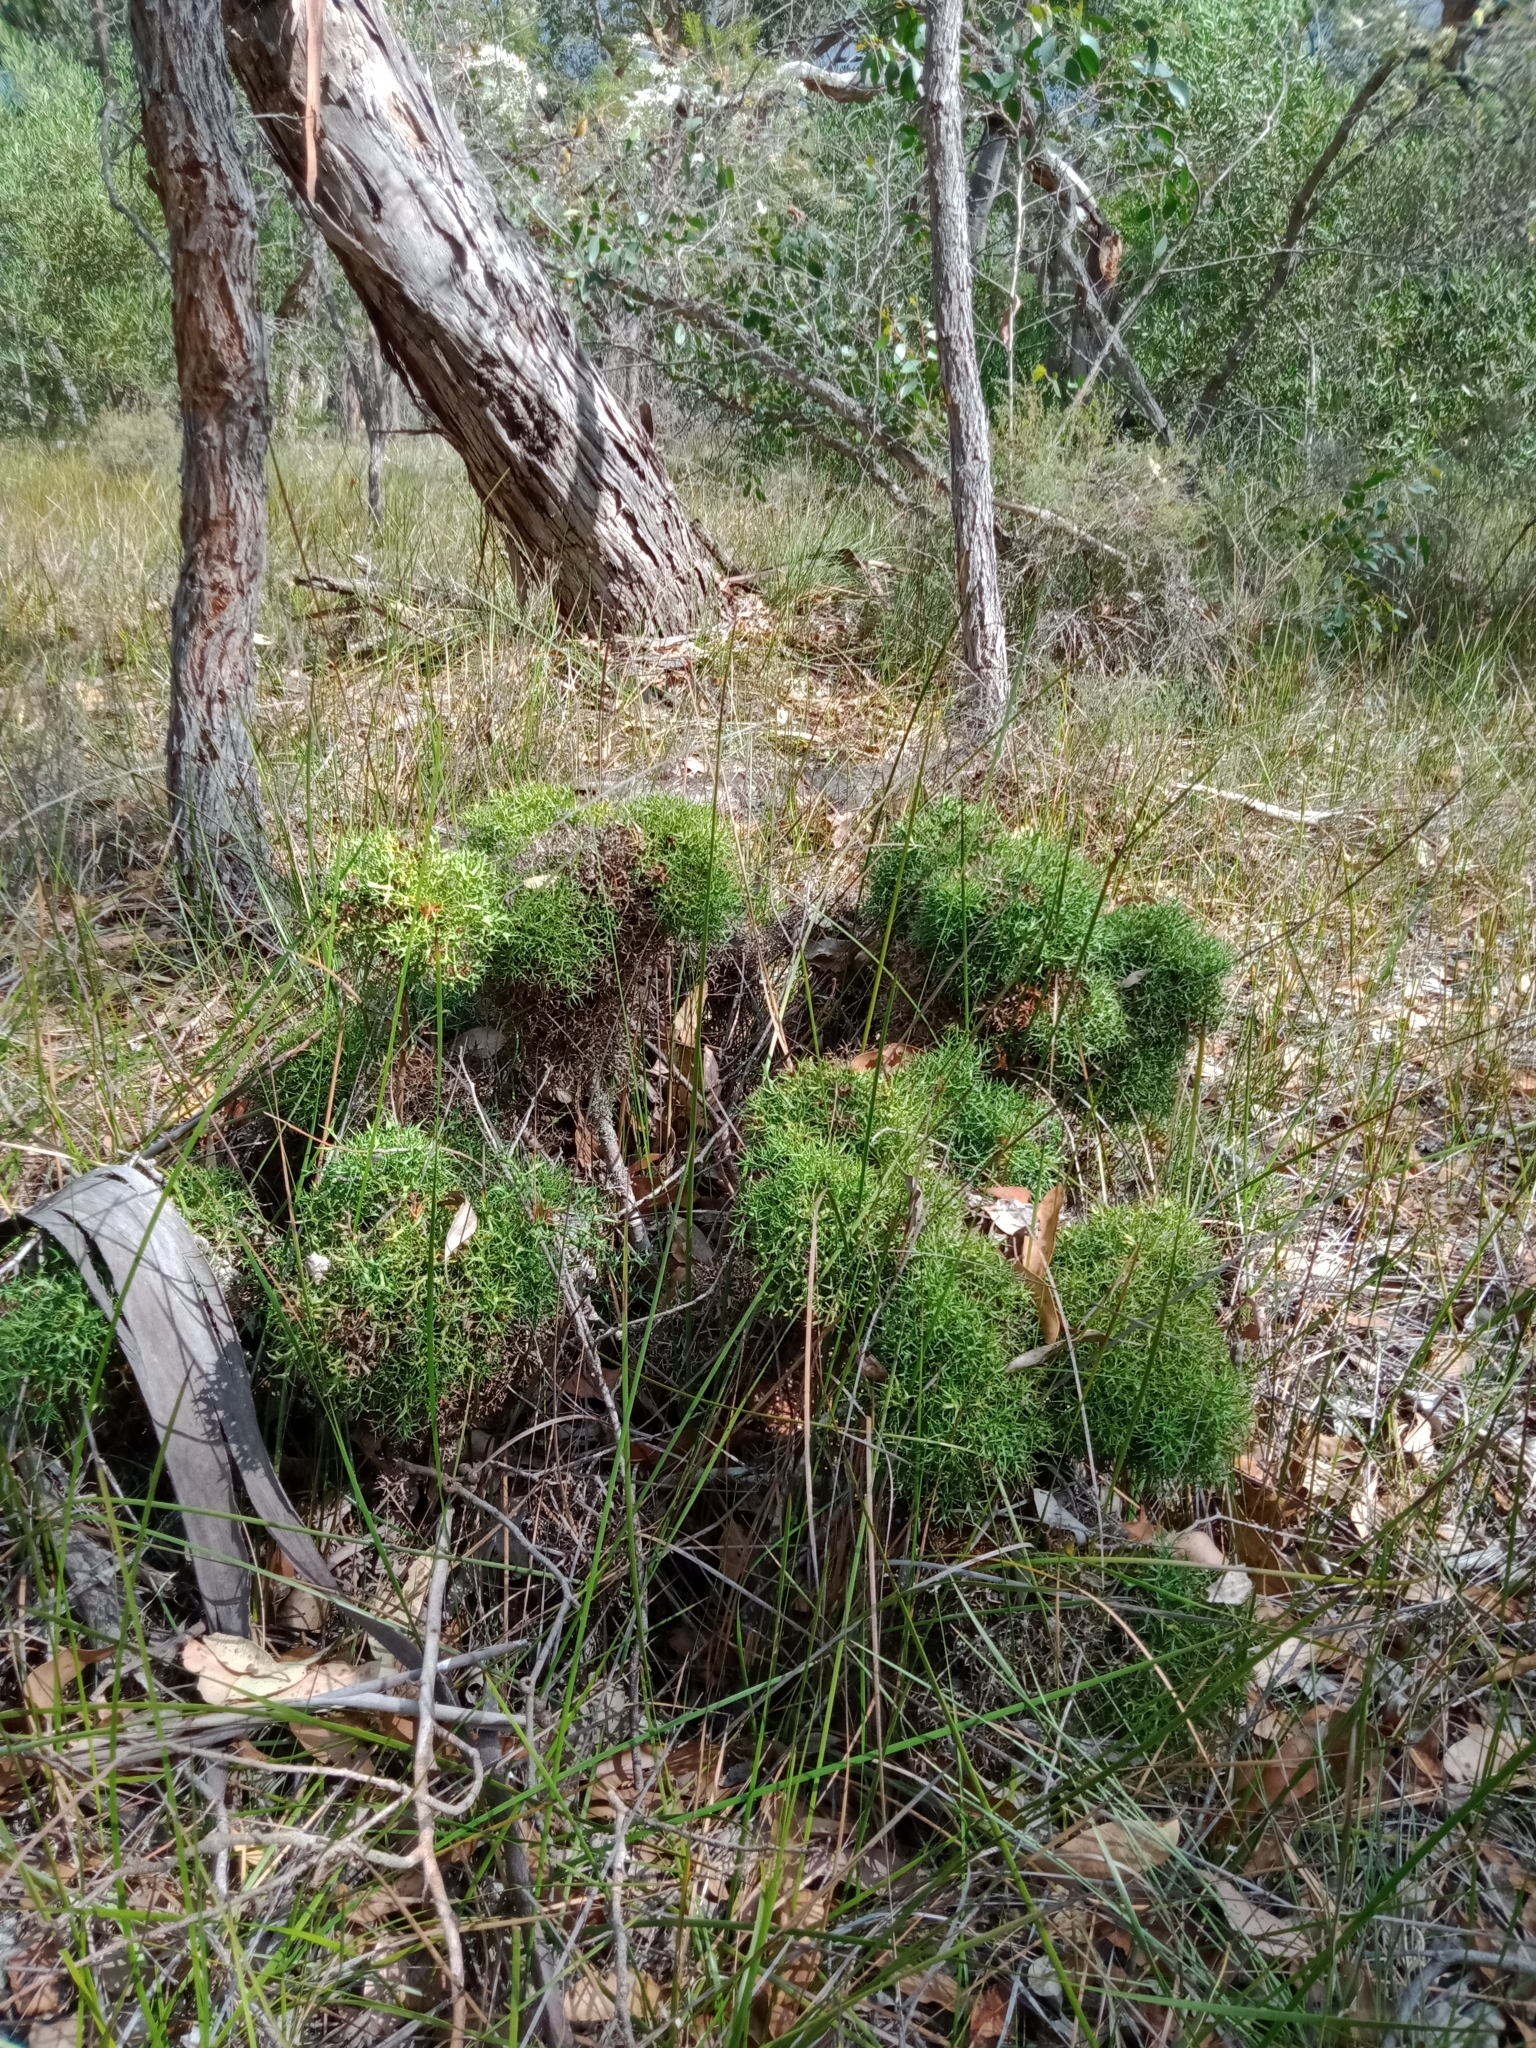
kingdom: Plantae
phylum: Tracheophyta
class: Magnoliopsida
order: Proteales
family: Proteaceae
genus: Isopogon
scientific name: Isopogon ceratophyllus
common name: Horny cone-bush
